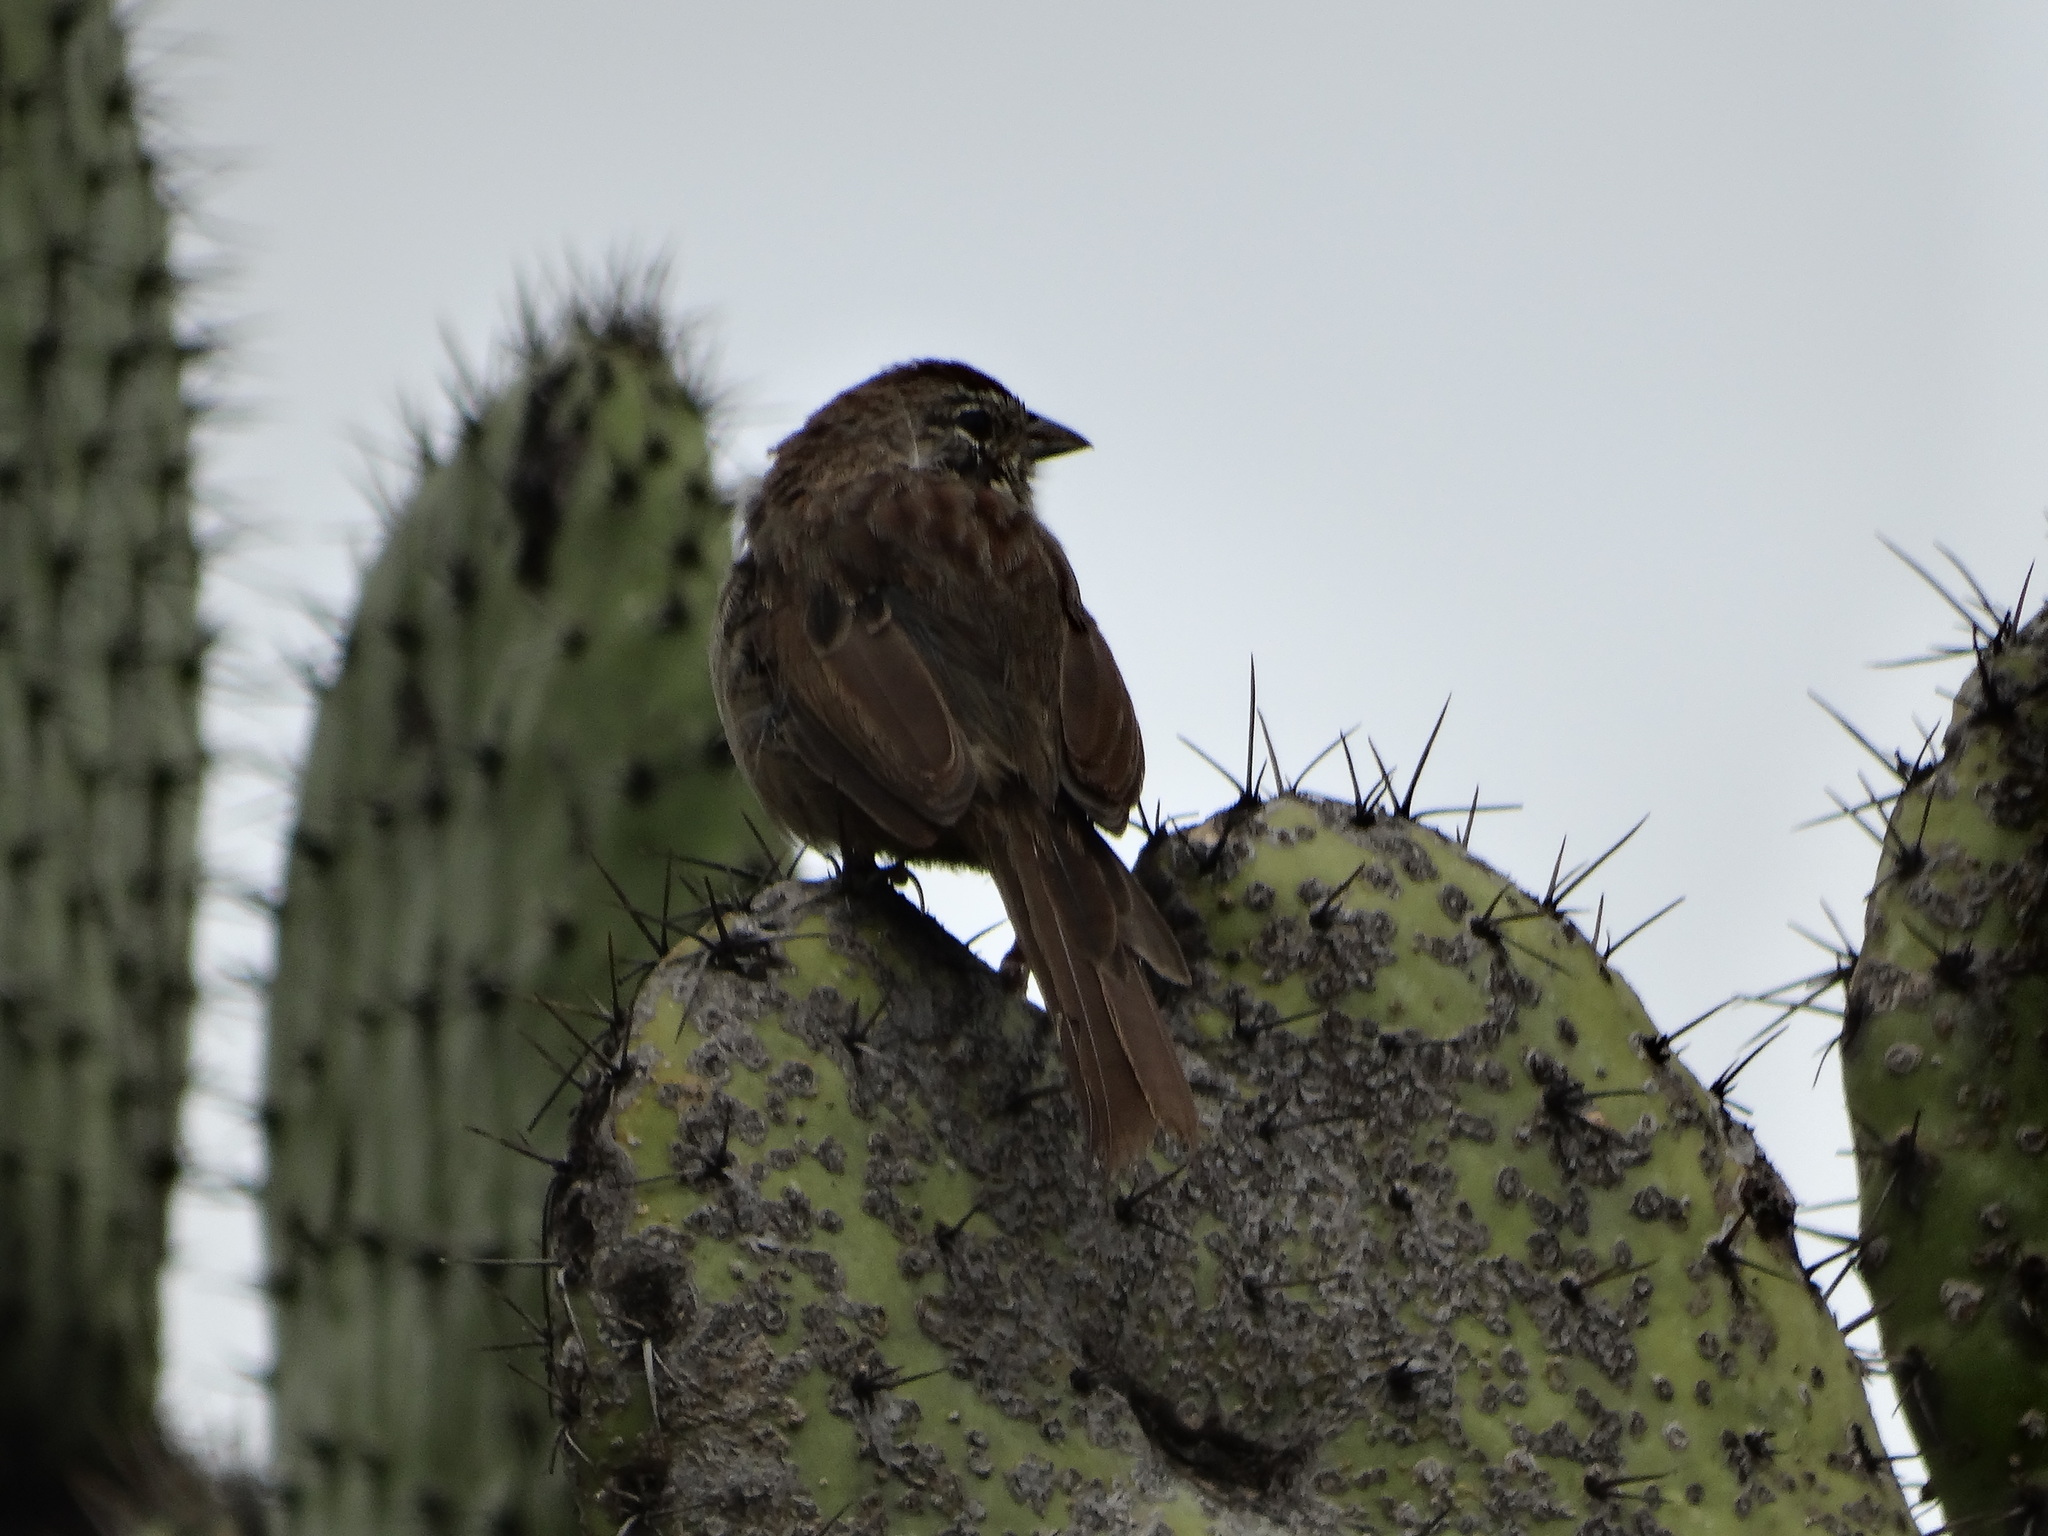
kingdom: Animalia
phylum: Chordata
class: Aves
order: Passeriformes
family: Passerellidae
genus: Aimophila
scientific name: Aimophila ruficeps
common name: Rufous-crowned sparrow
